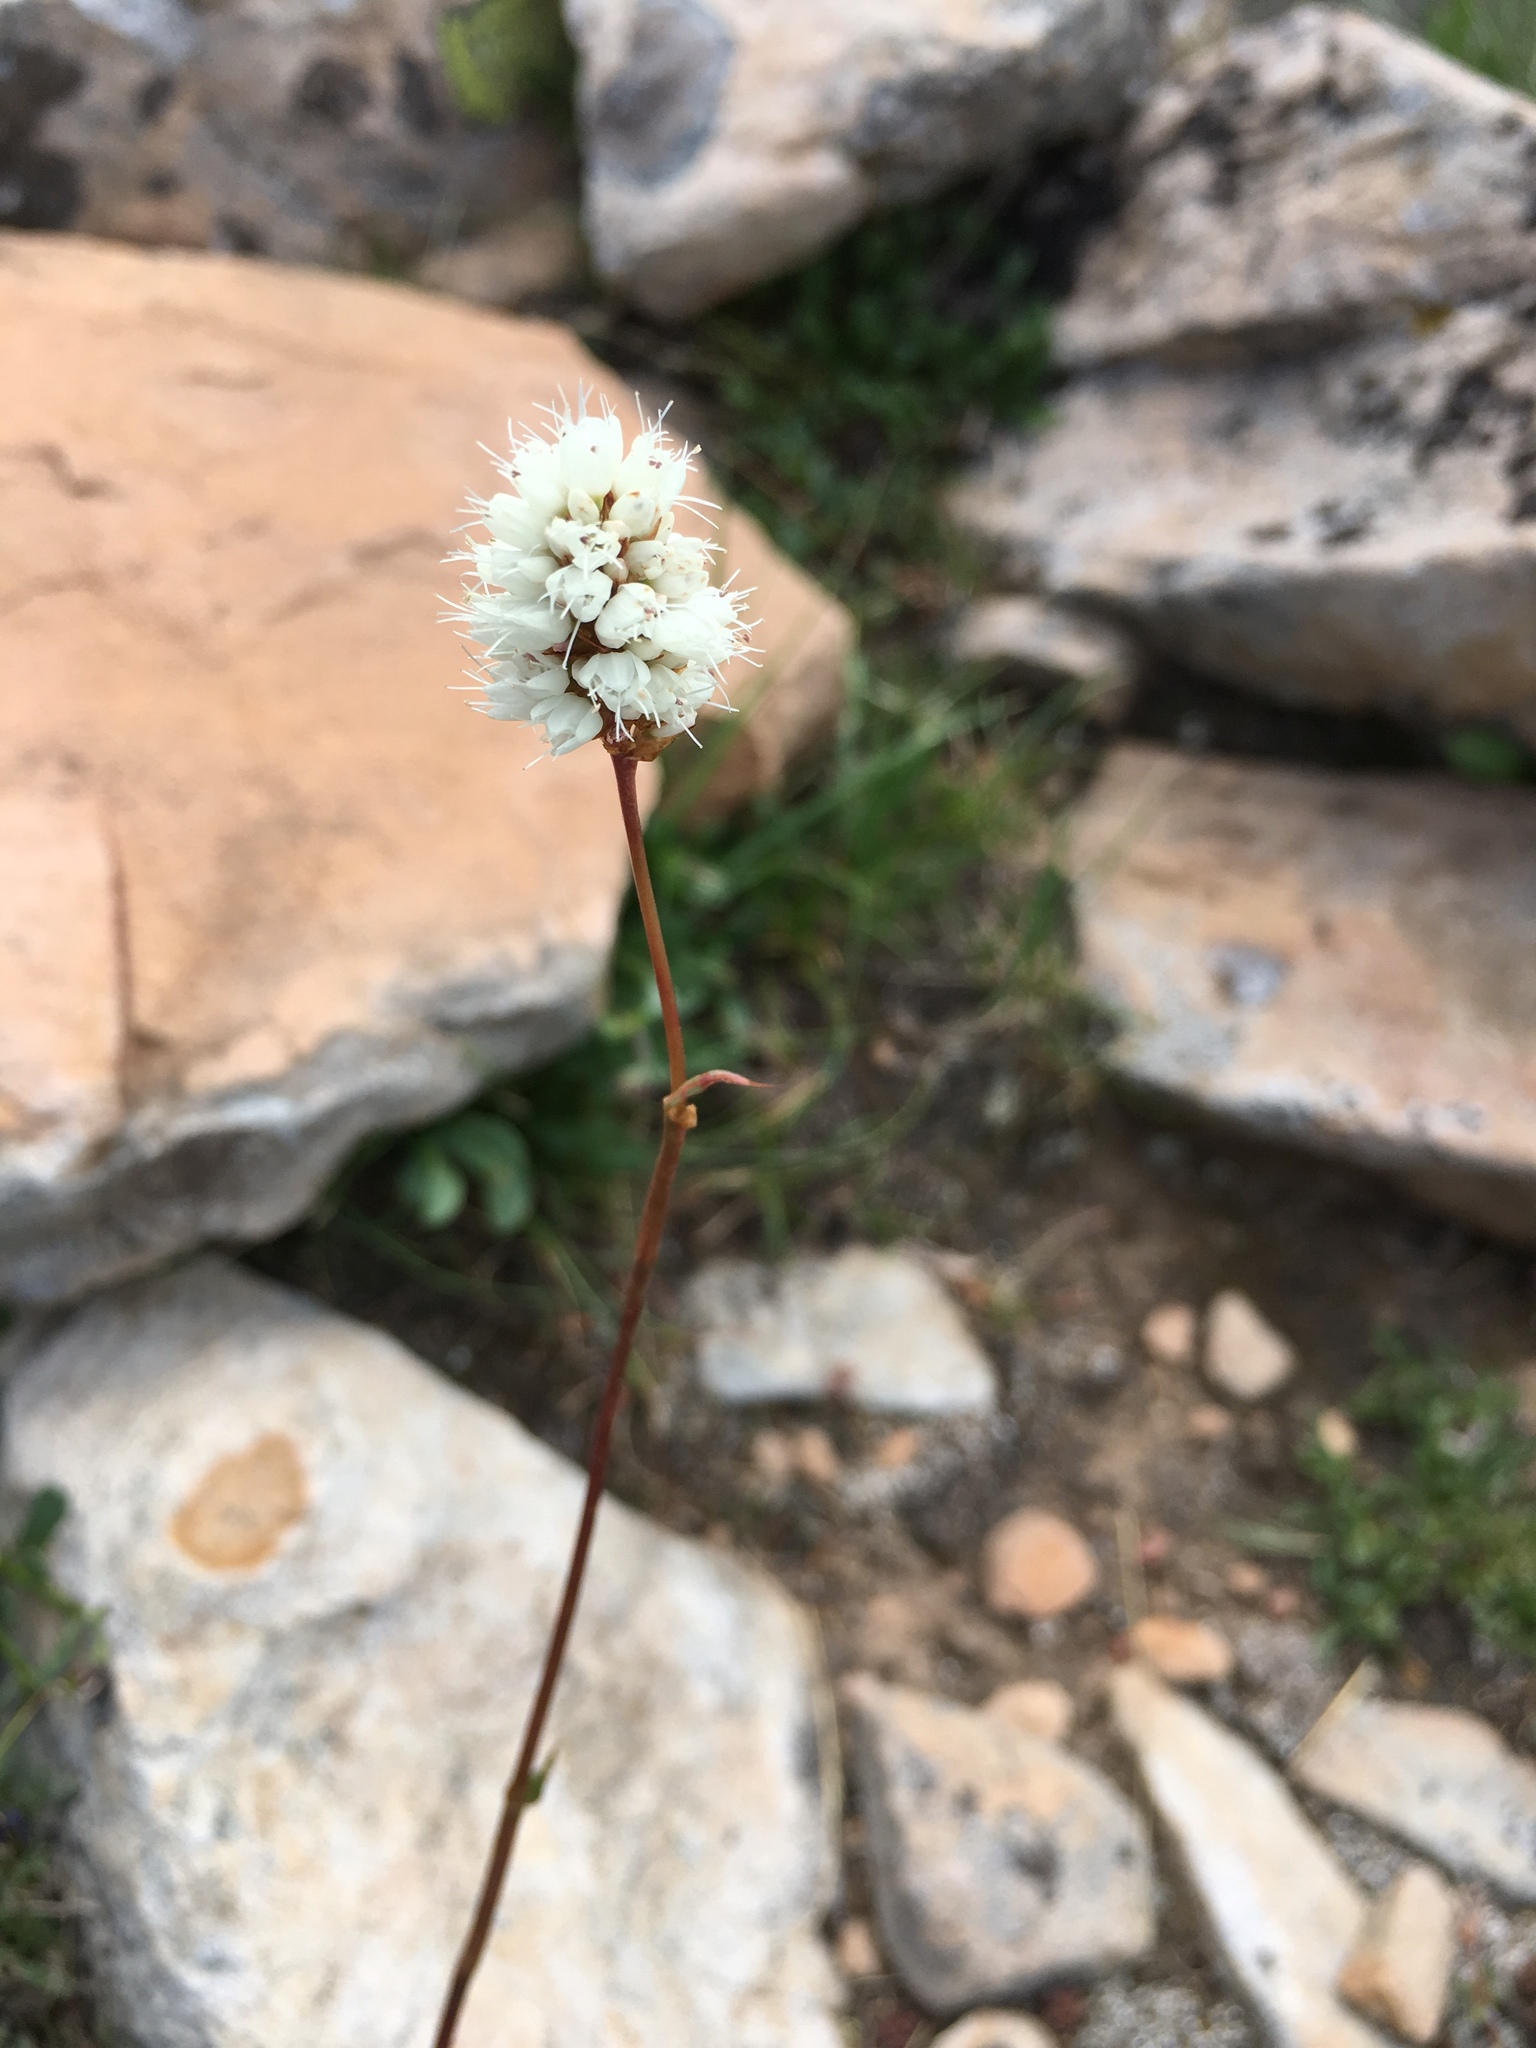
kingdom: Plantae
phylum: Tracheophyta
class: Magnoliopsida
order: Caryophyllales
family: Polygonaceae
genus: Bistorta
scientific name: Bistorta bistortoides
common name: American bistort
